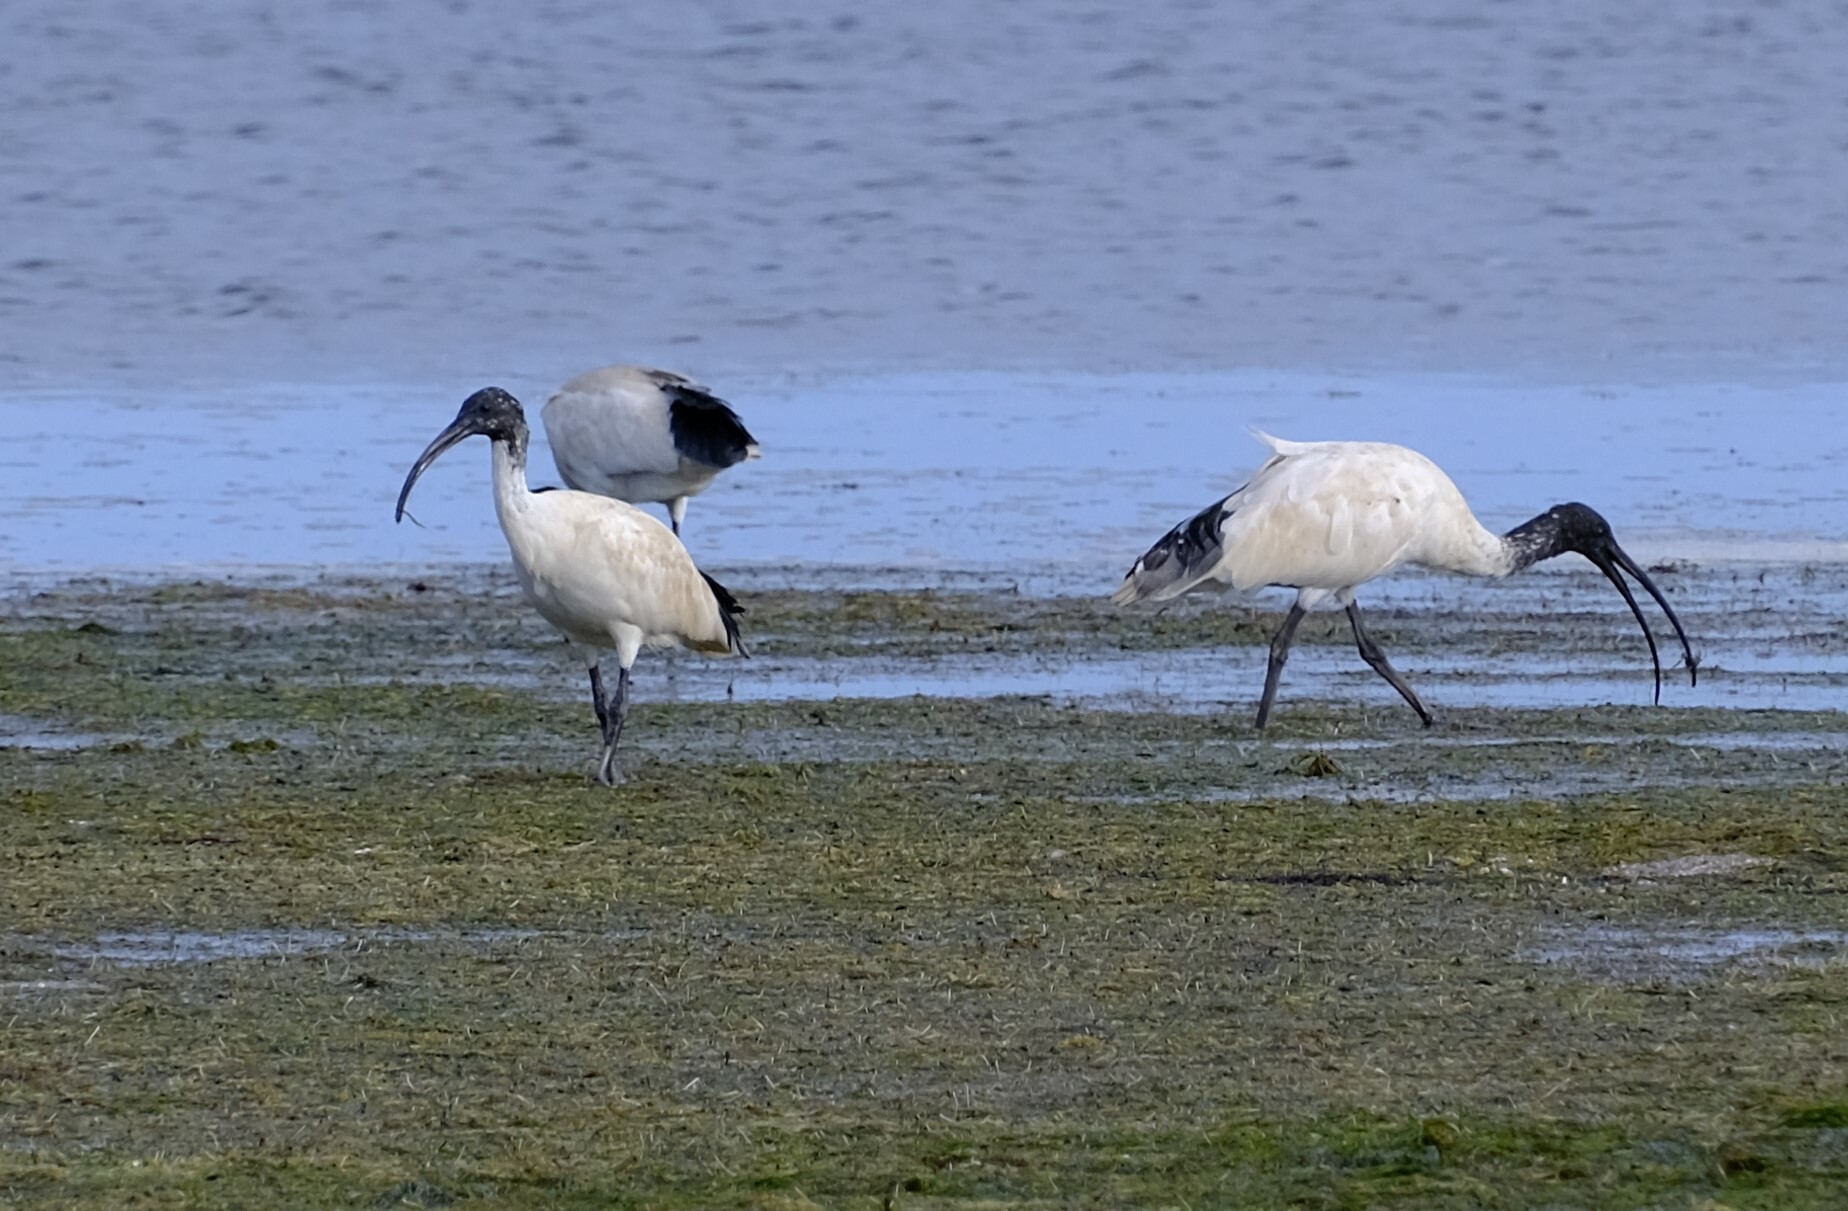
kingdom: Animalia
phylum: Chordata
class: Aves
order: Pelecaniformes
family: Threskiornithidae
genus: Threskiornis
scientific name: Threskiornis molucca
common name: Australian white ibis
